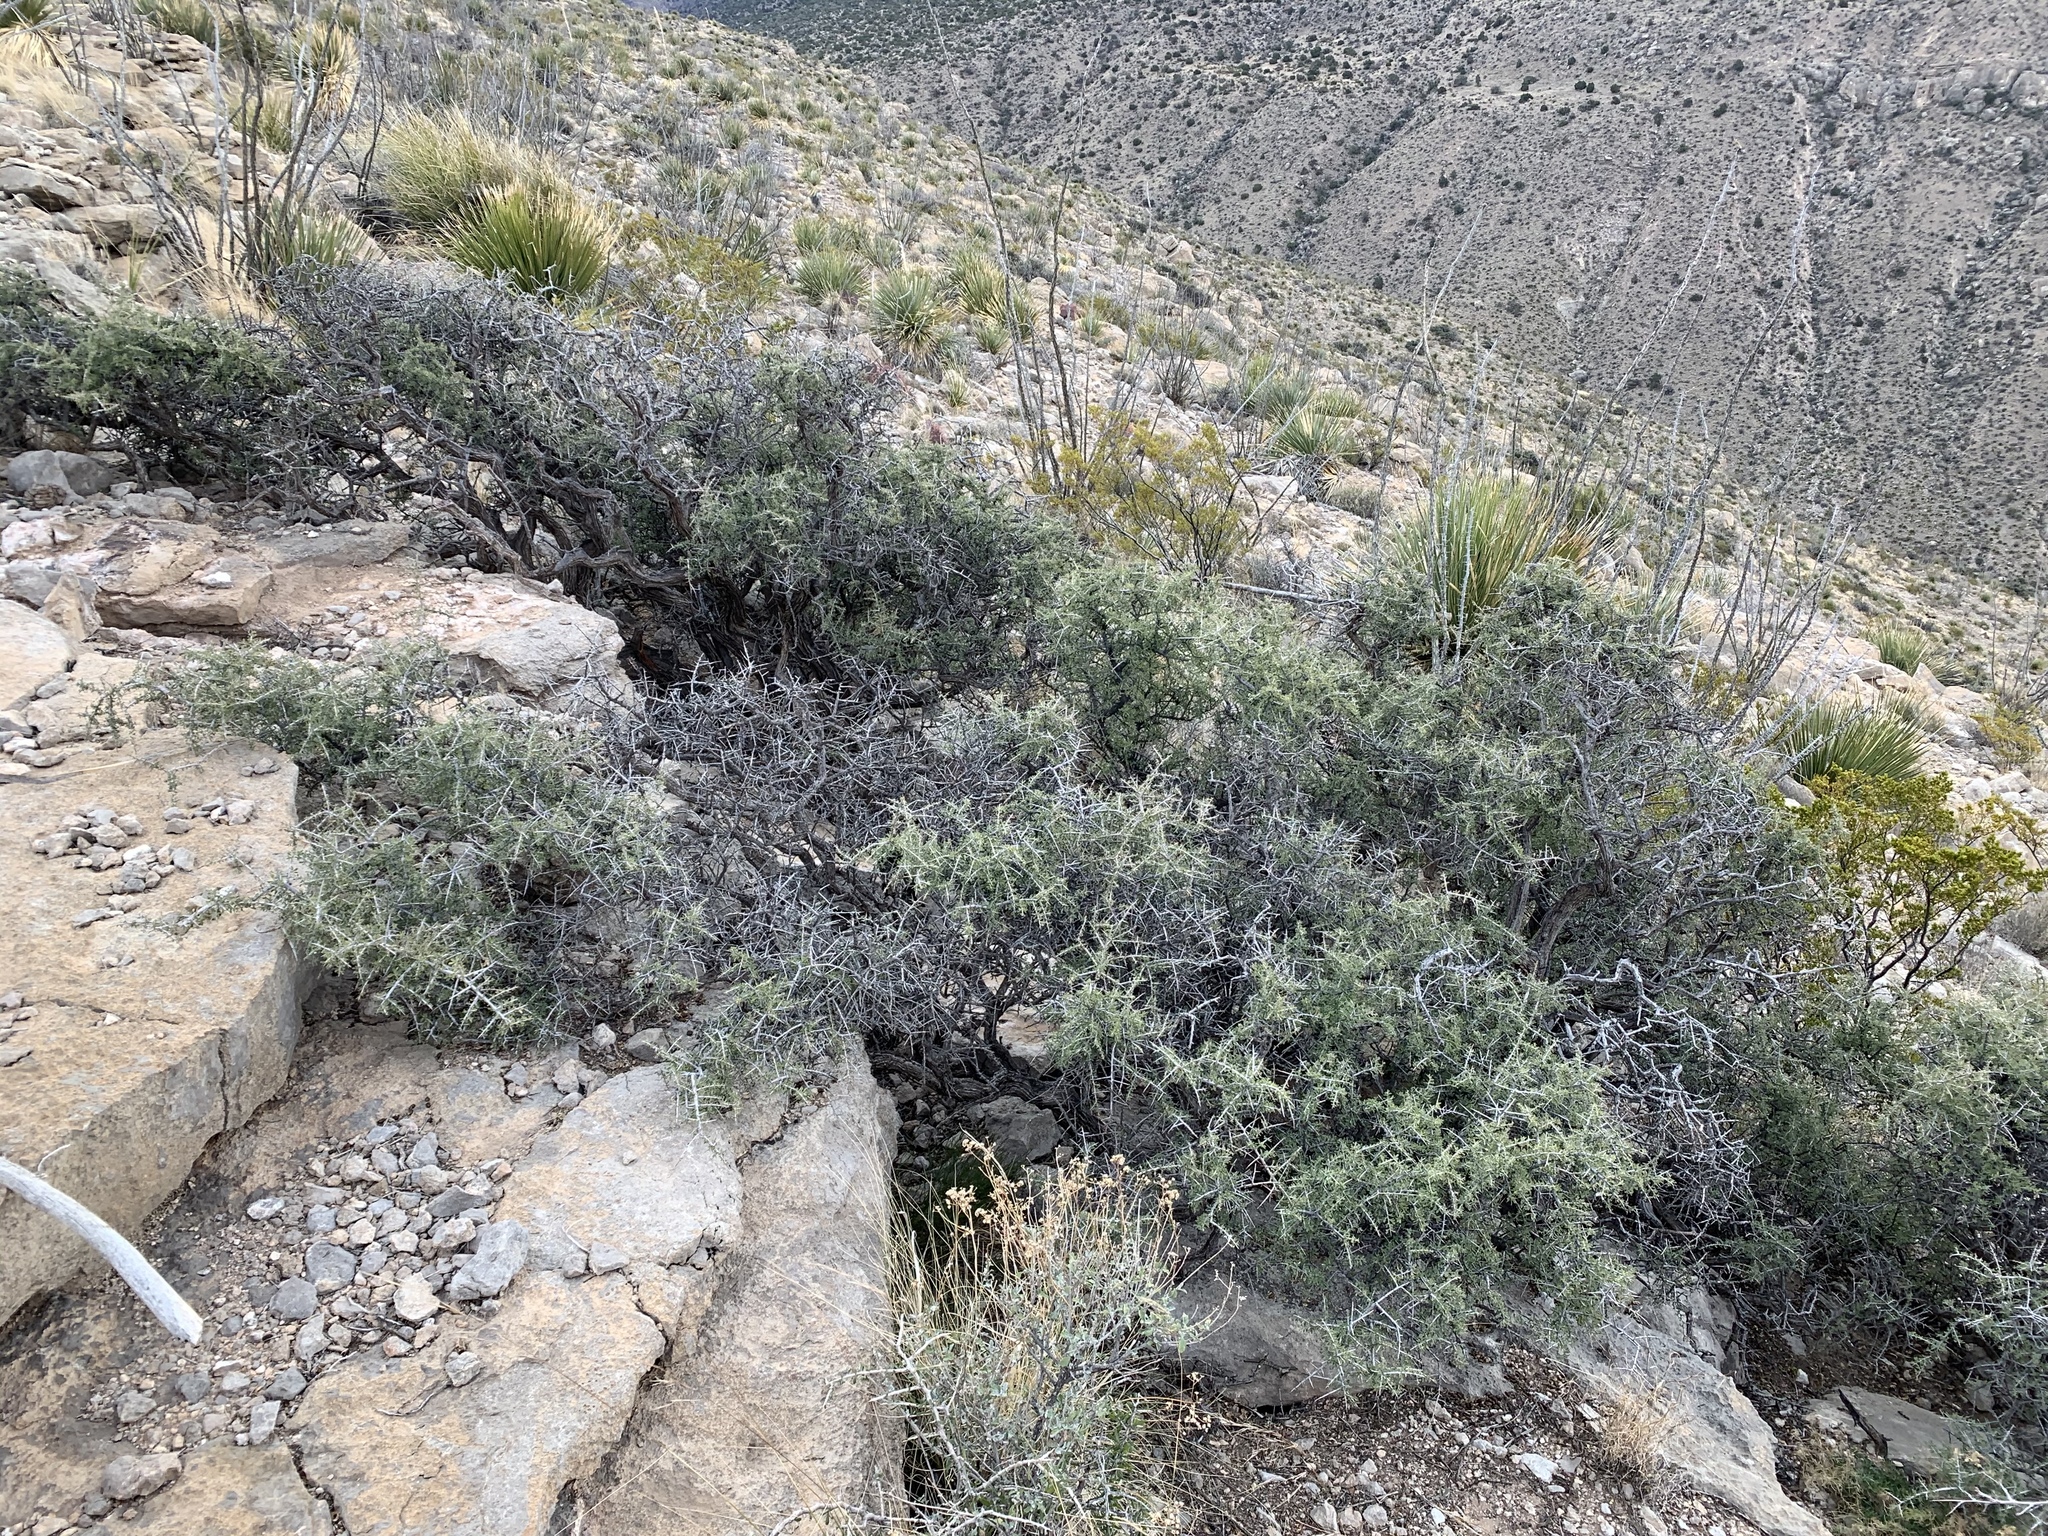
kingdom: Plantae
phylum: Tracheophyta
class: Magnoliopsida
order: Rosales
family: Rhamnaceae
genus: Condalia
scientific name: Condalia warnockii
